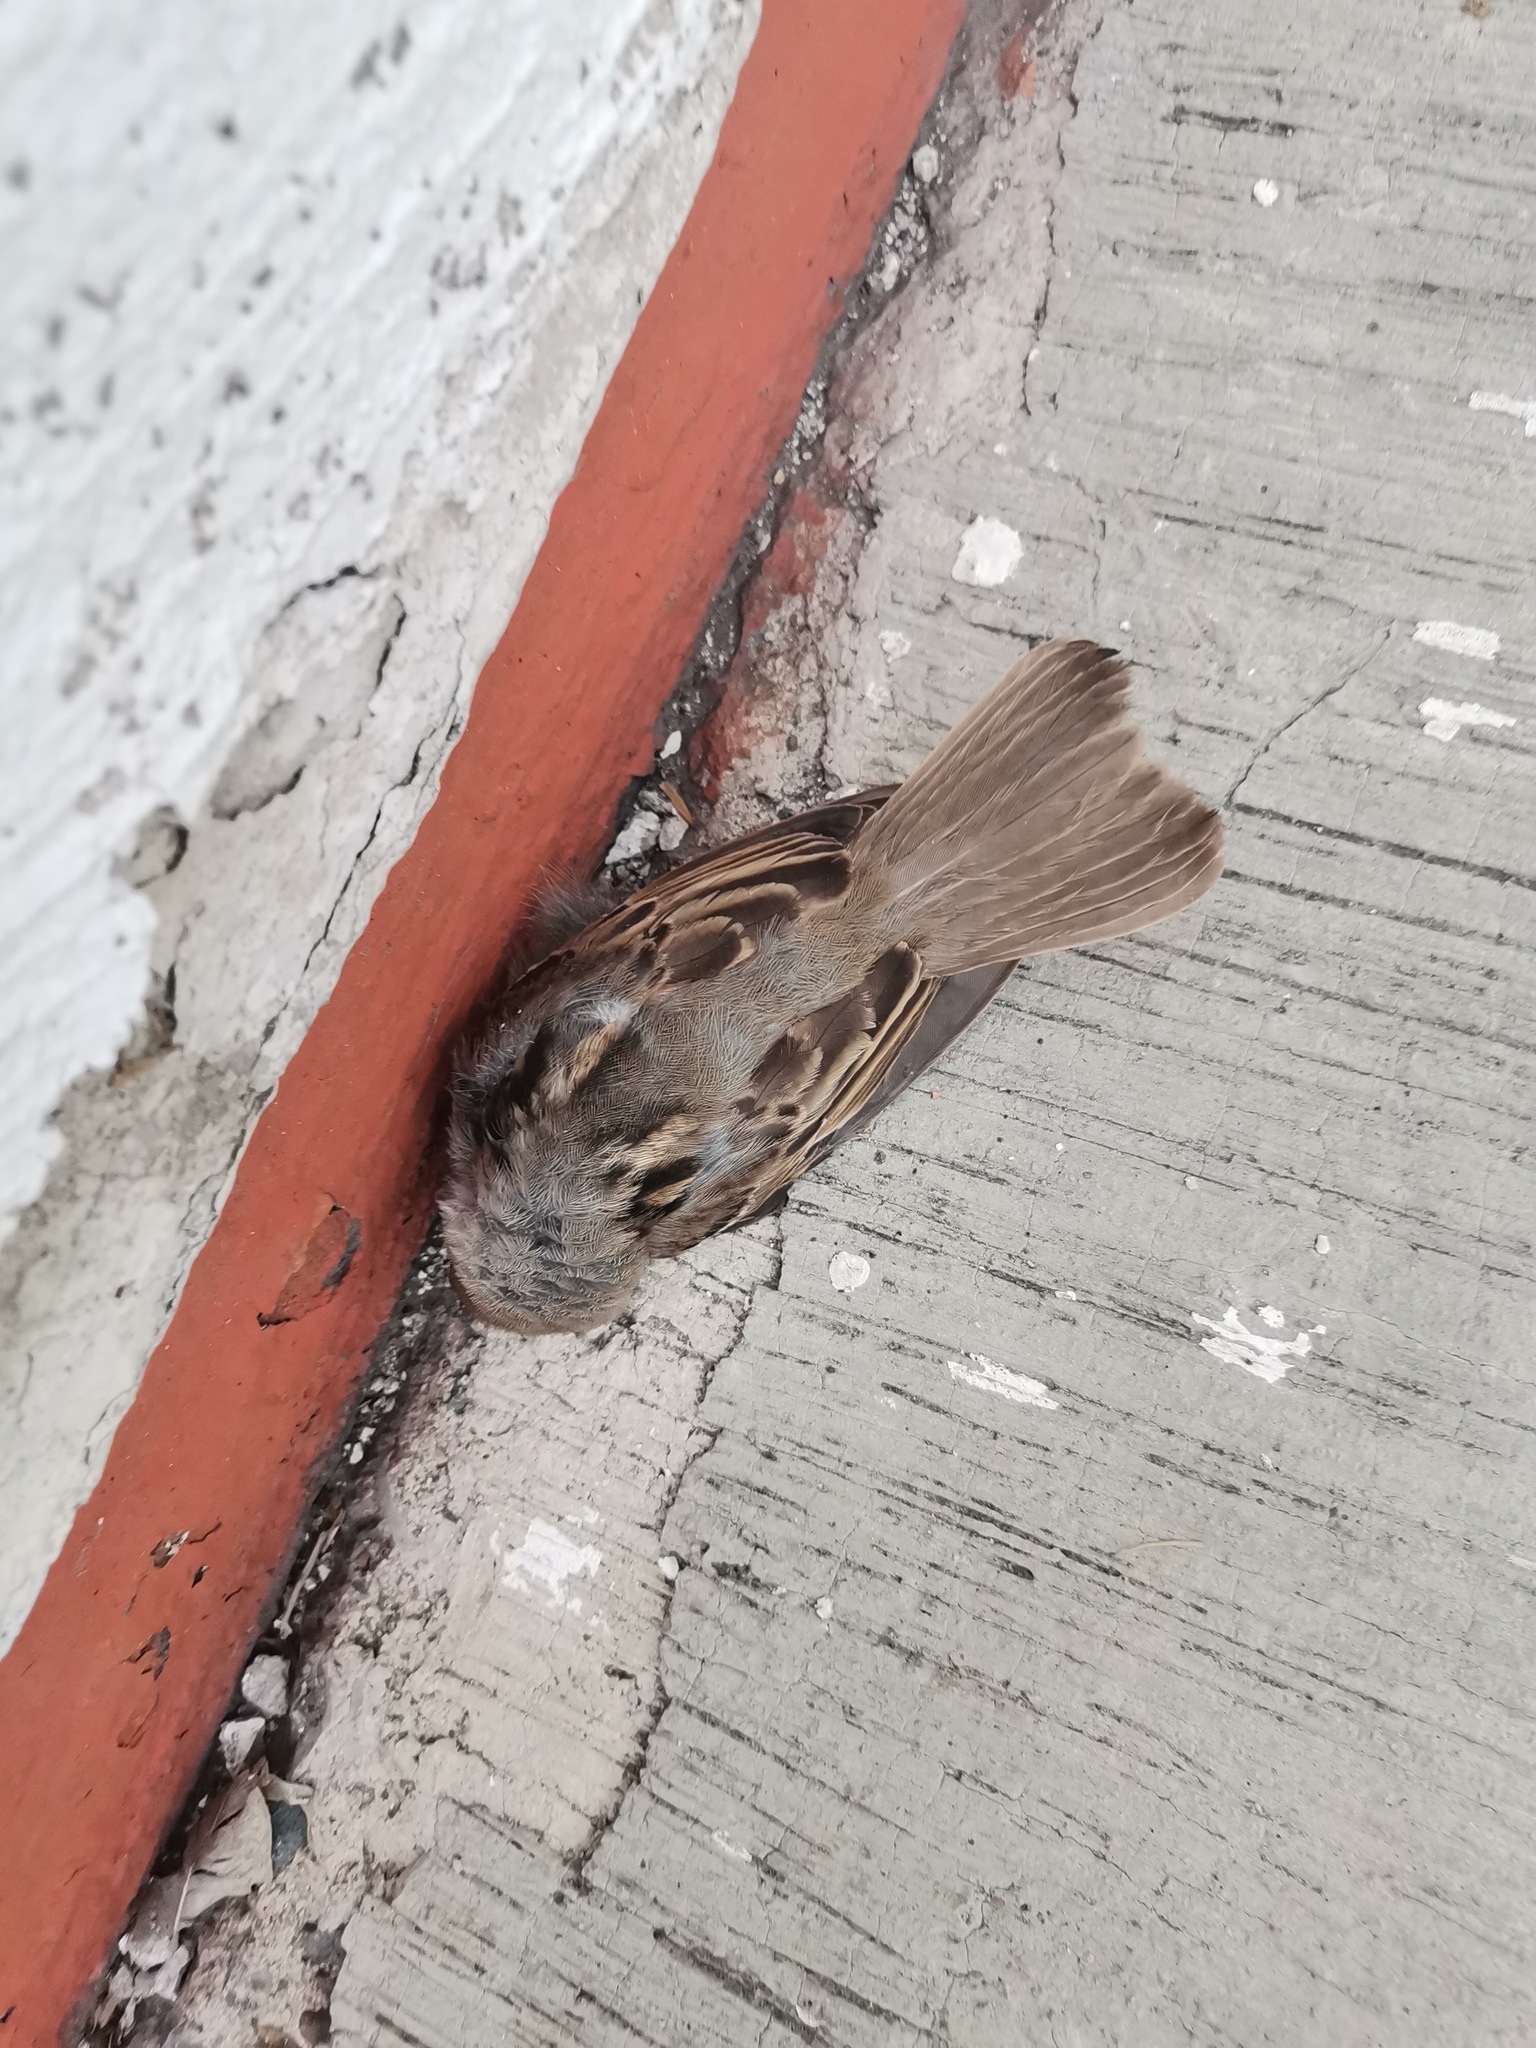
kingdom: Animalia
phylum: Chordata
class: Aves
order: Passeriformes
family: Passeridae
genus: Passer
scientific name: Passer domesticus
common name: House sparrow
